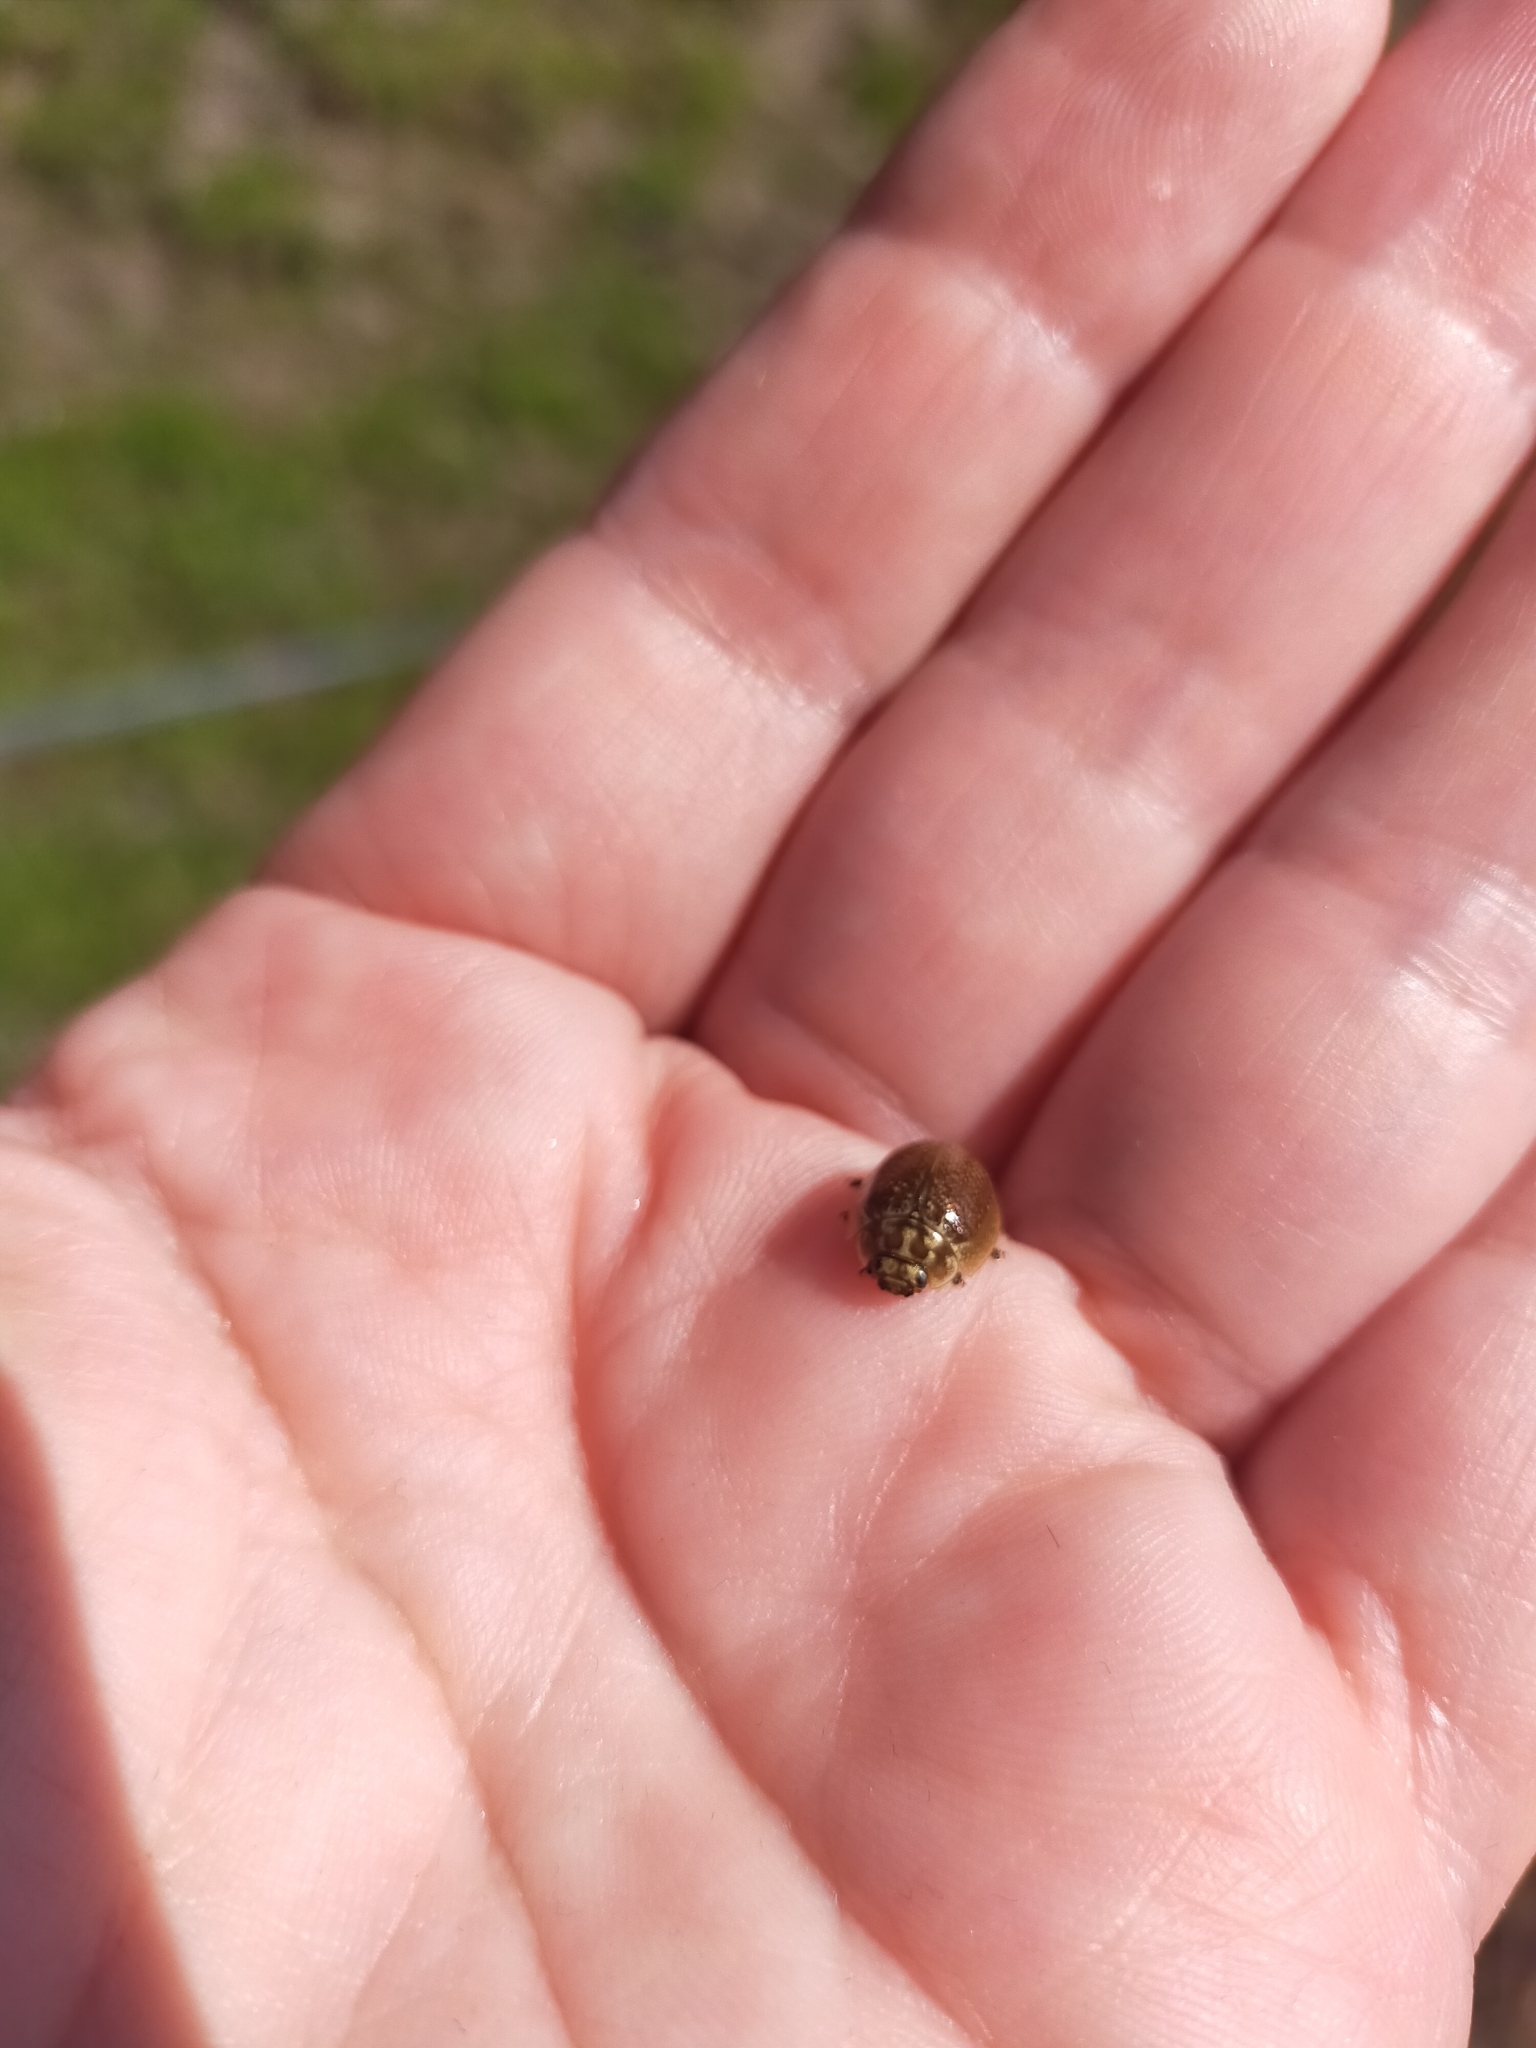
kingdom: Animalia
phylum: Arthropoda
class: Insecta
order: Coleoptera
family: Chrysomelidae
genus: Paropsisterna
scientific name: Paropsisterna cloelia
